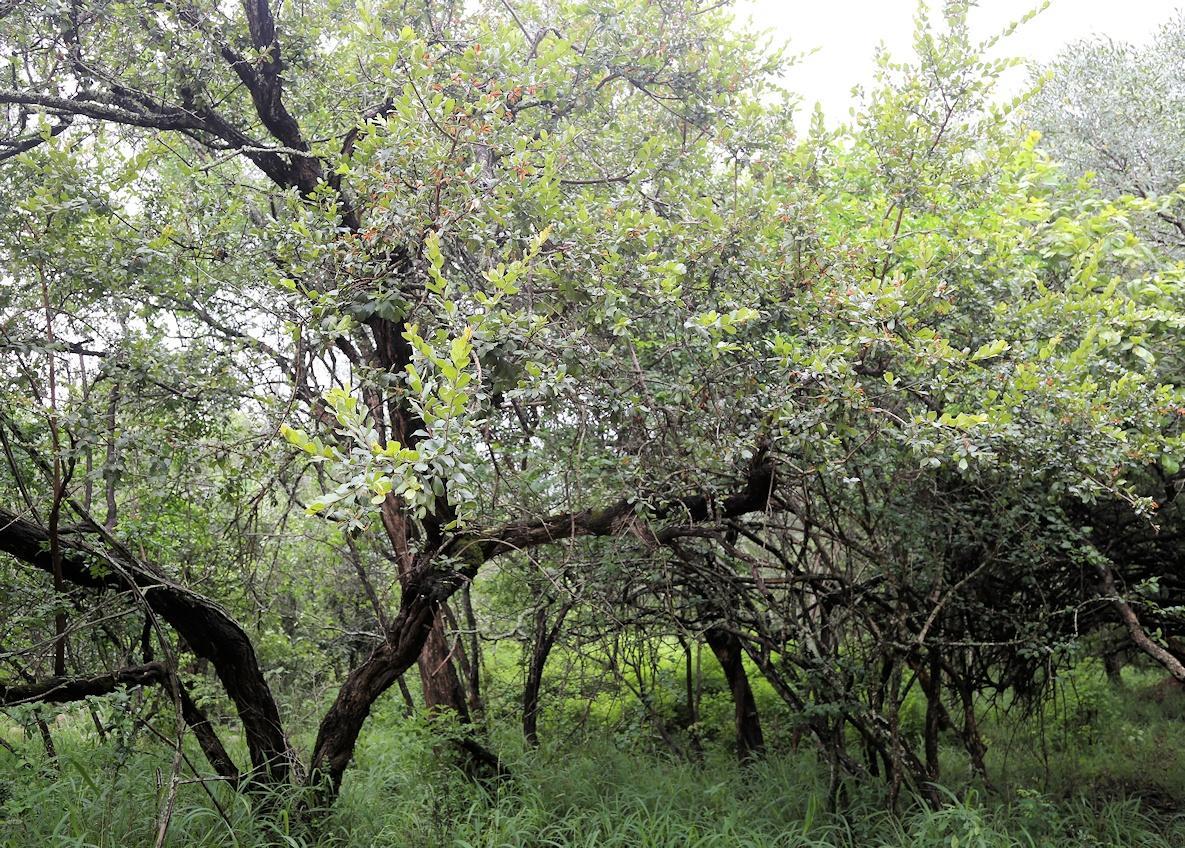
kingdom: Plantae
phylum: Tracheophyta
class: Magnoliopsida
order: Myrtales
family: Combretaceae
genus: Combretum
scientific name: Combretum hereroense
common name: Russet bushwillow
